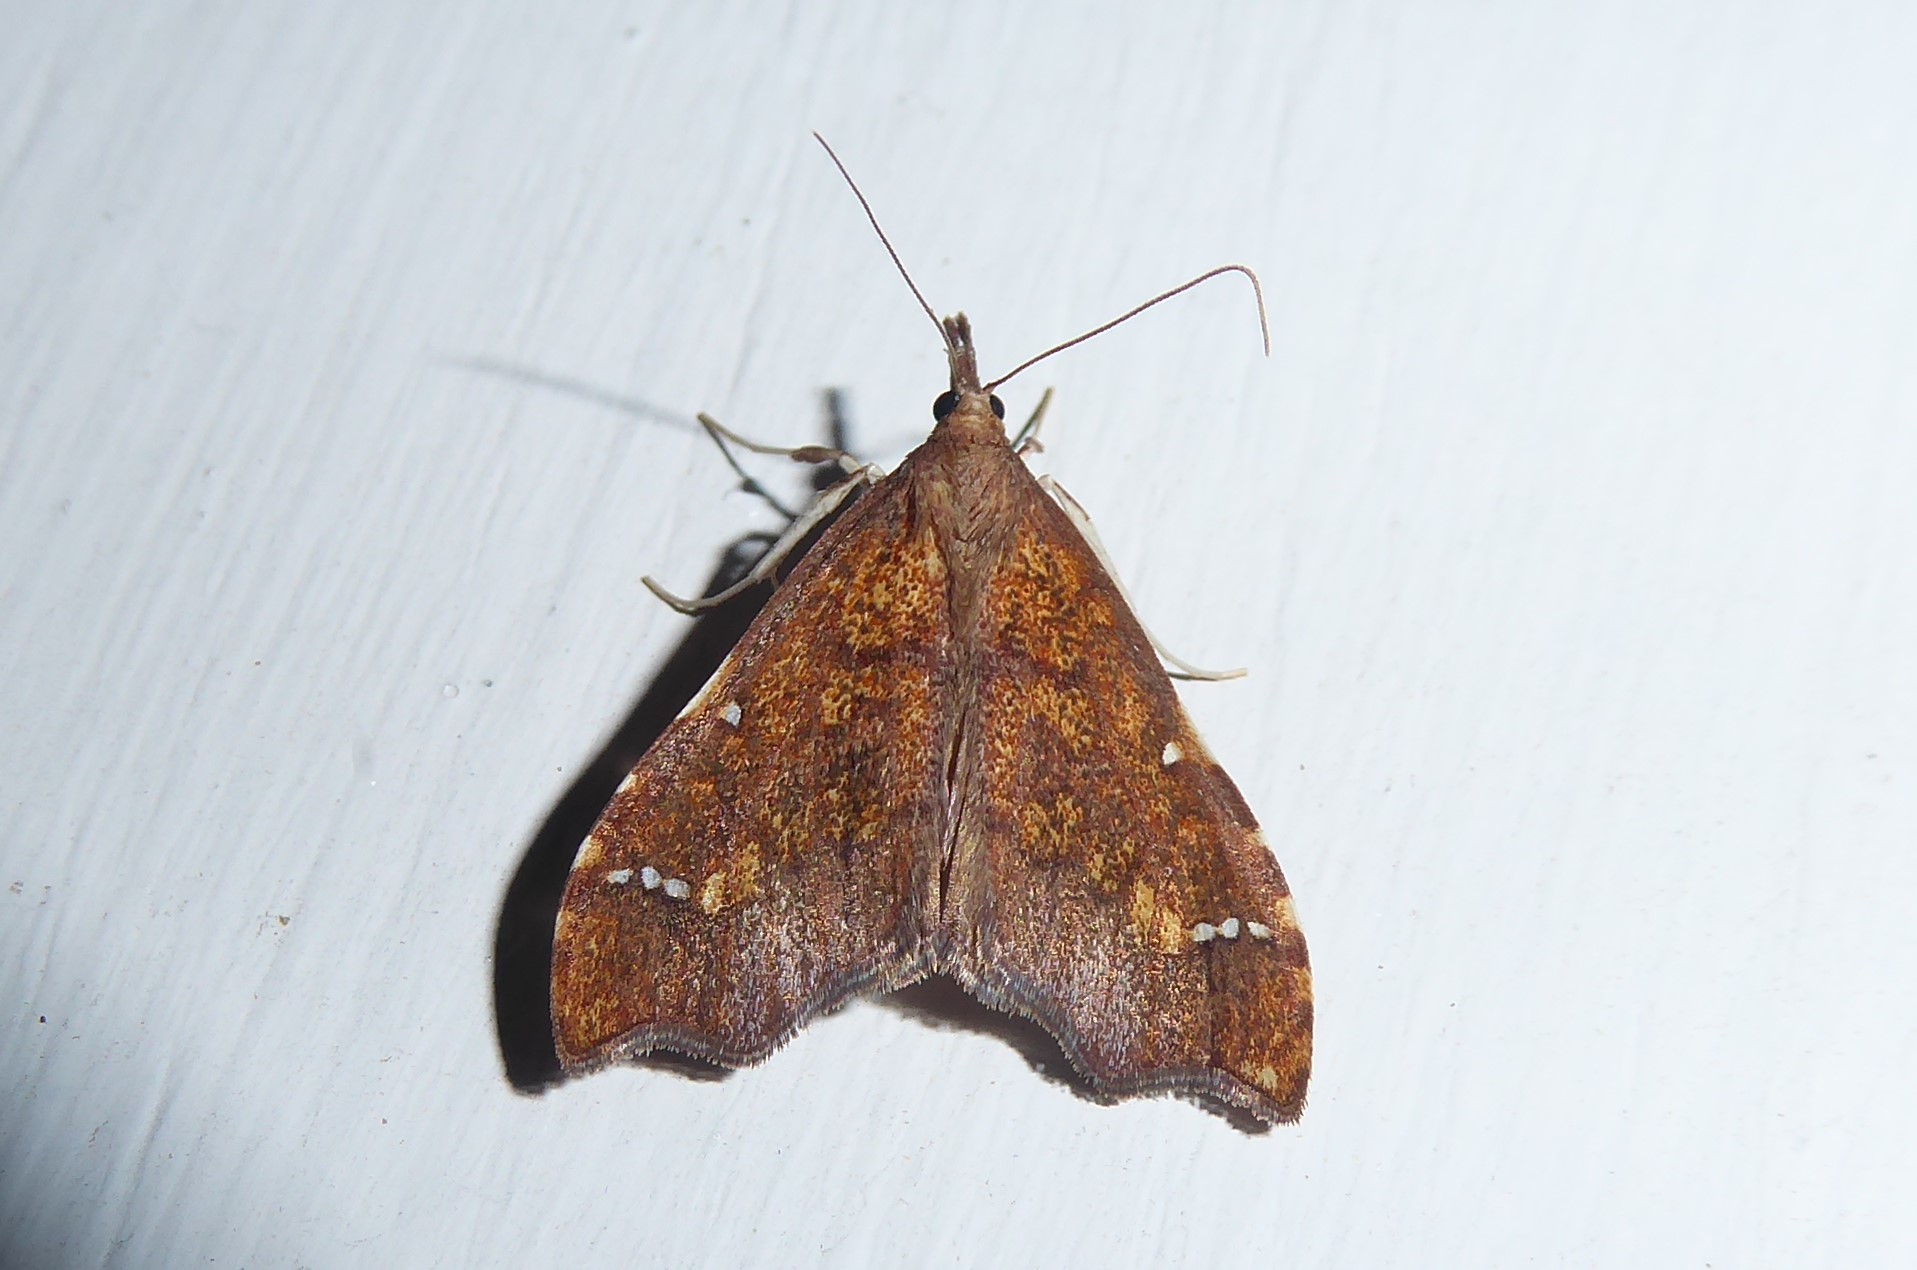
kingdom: Animalia
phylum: Arthropoda
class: Insecta
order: Lepidoptera
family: Crambidae
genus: Deana
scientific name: Deana hybreasalis
